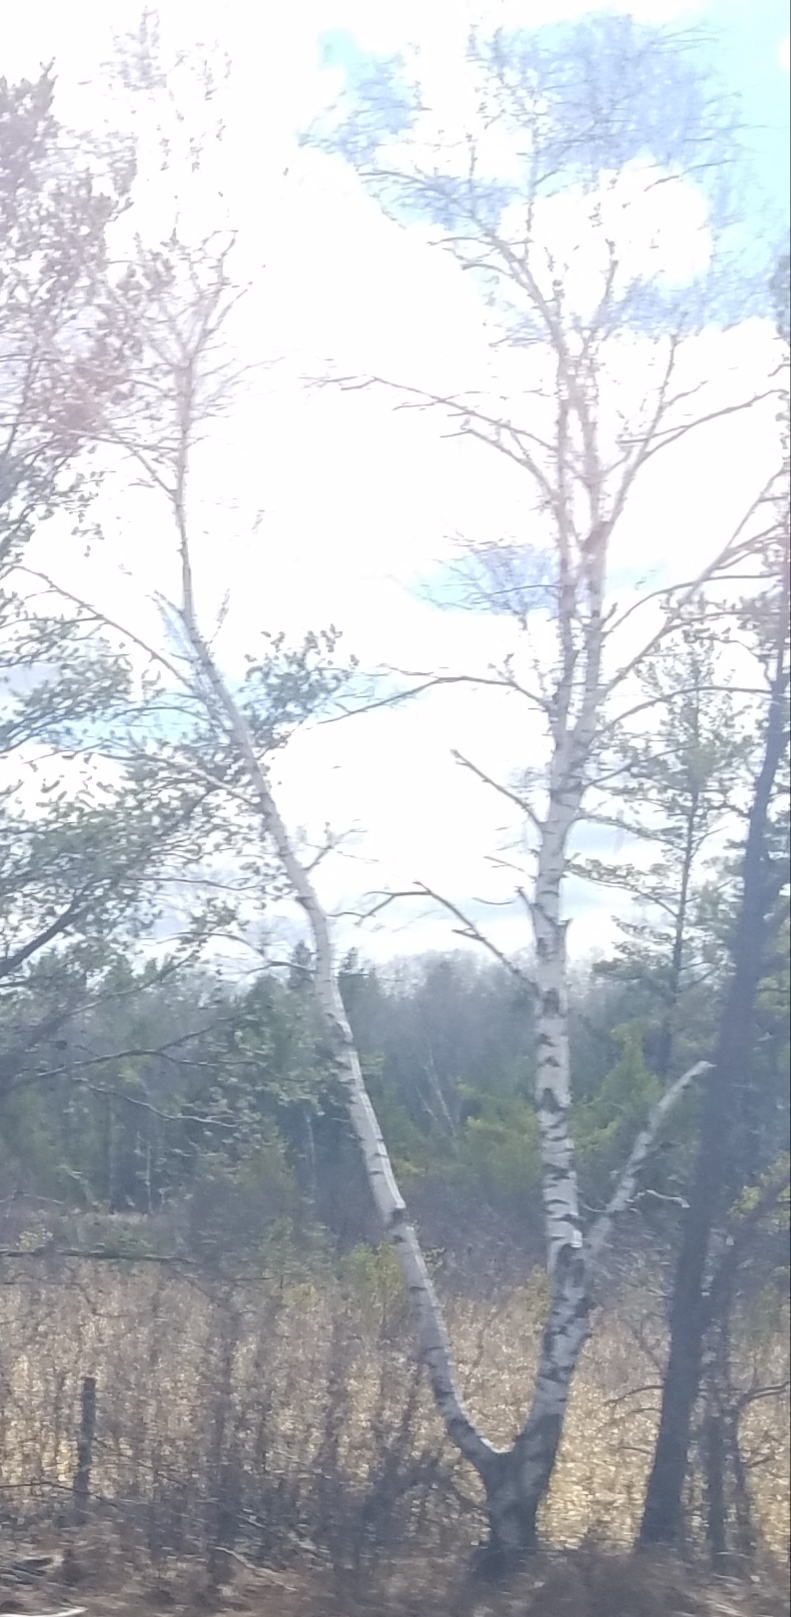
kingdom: Plantae
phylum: Tracheophyta
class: Magnoliopsida
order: Malpighiales
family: Salicaceae
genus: Populus
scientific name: Populus tremuloides
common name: Quaking aspen
